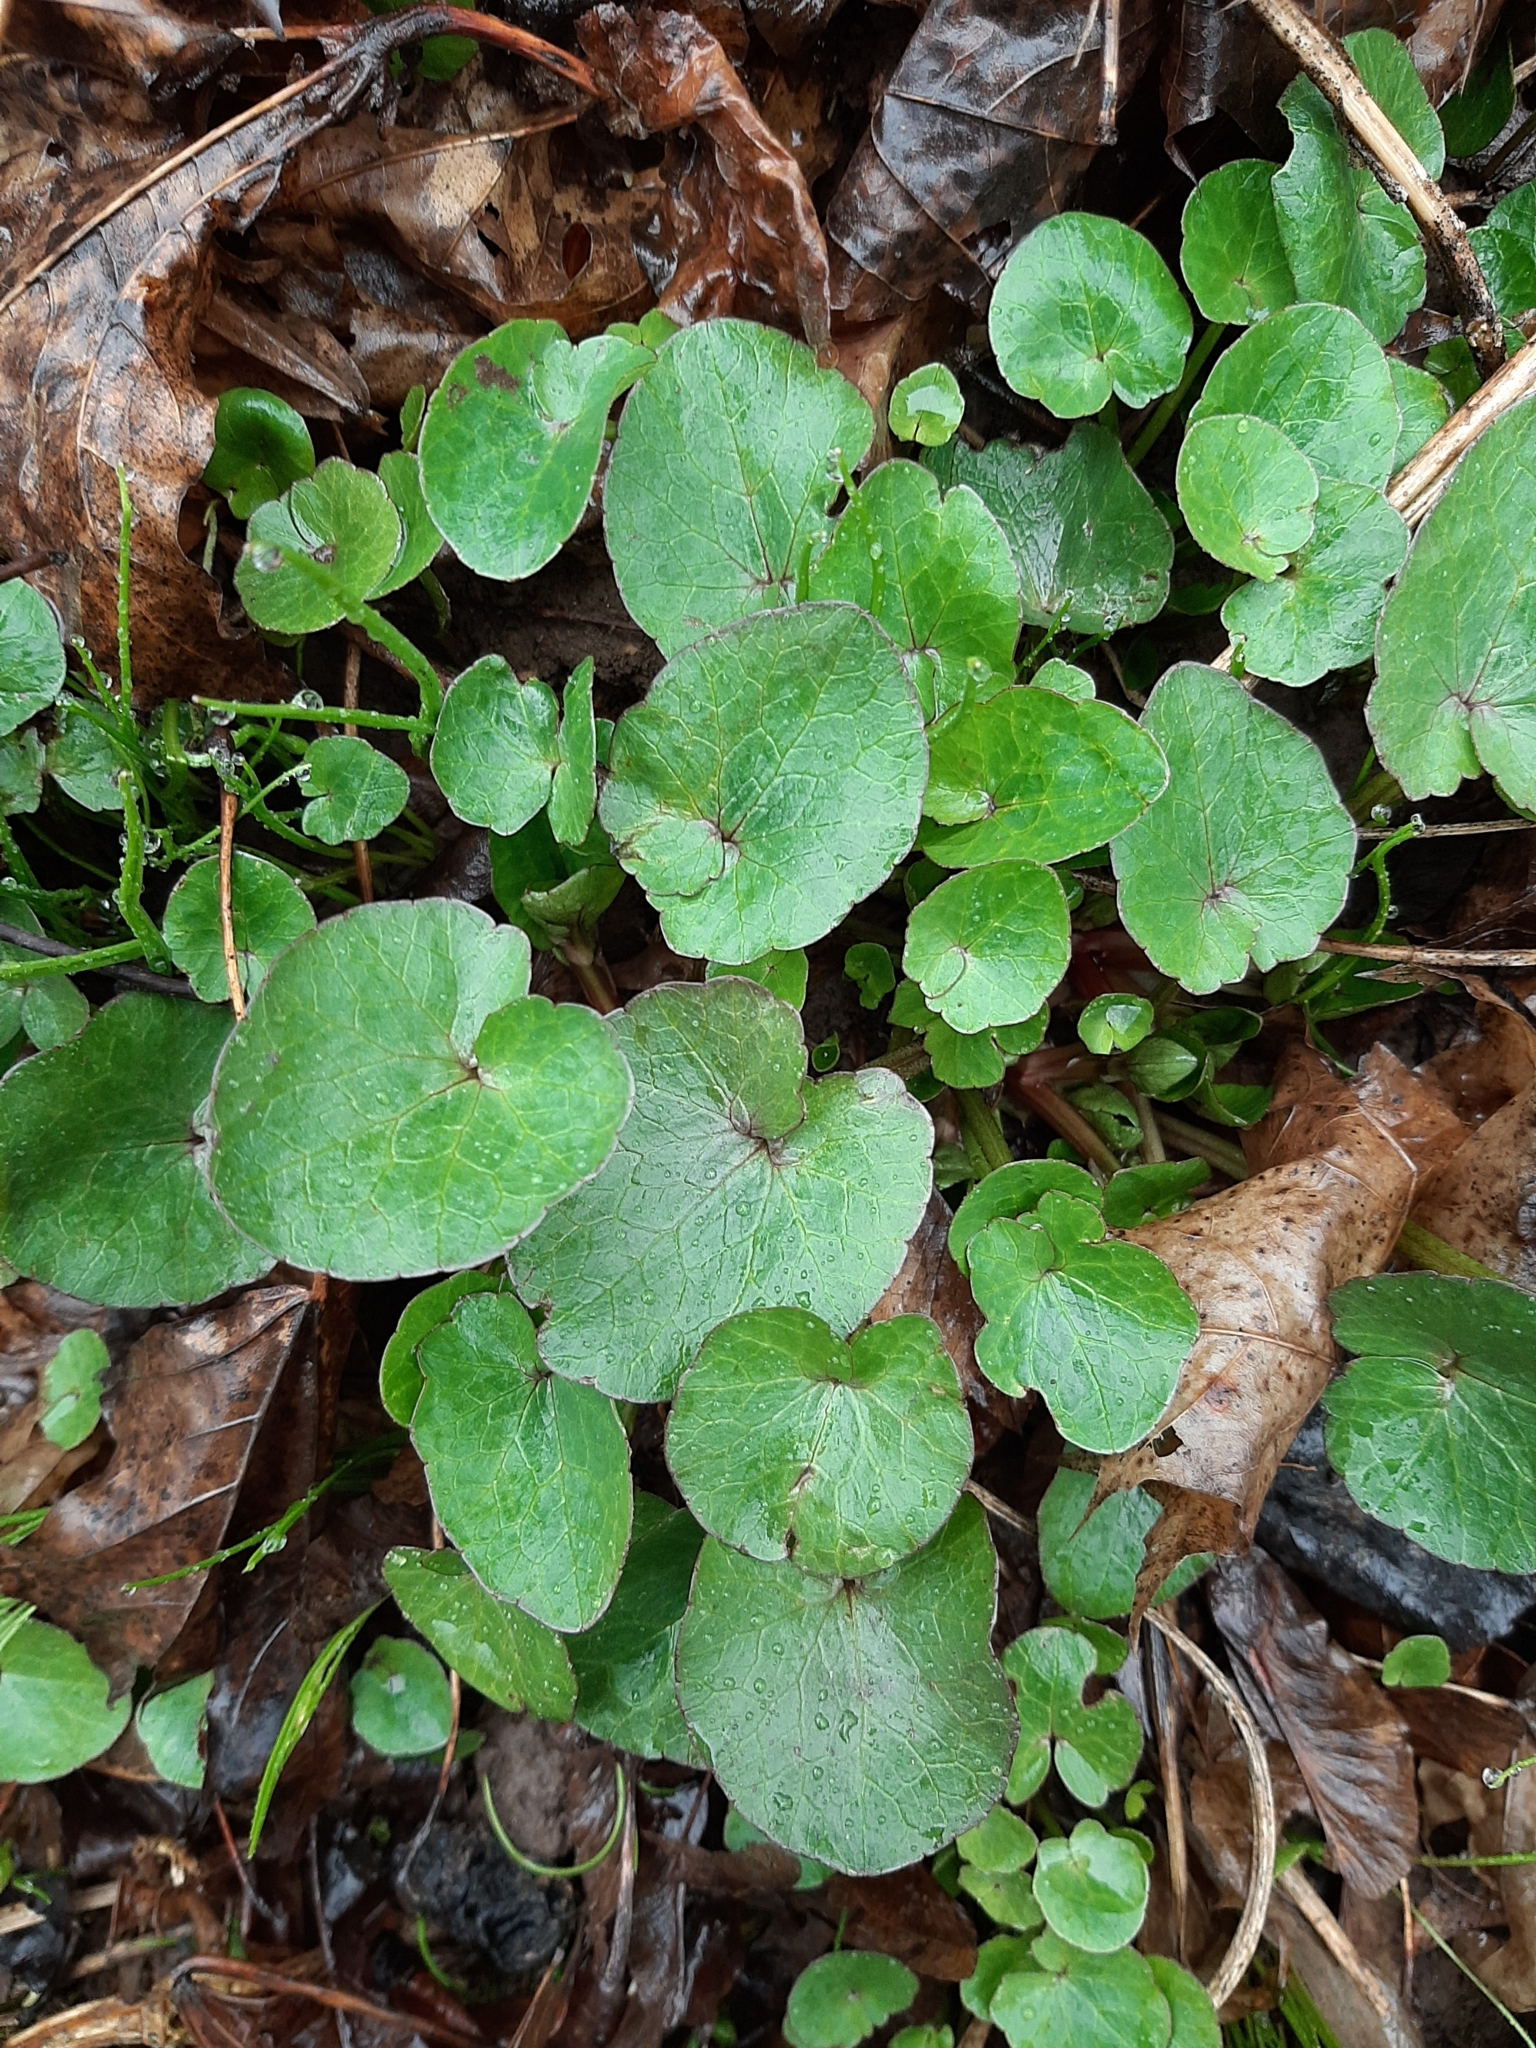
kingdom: Plantae
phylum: Tracheophyta
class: Magnoliopsida
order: Ranunculales
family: Ranunculaceae
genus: Ficaria
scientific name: Ficaria verna
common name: Lesser celandine
